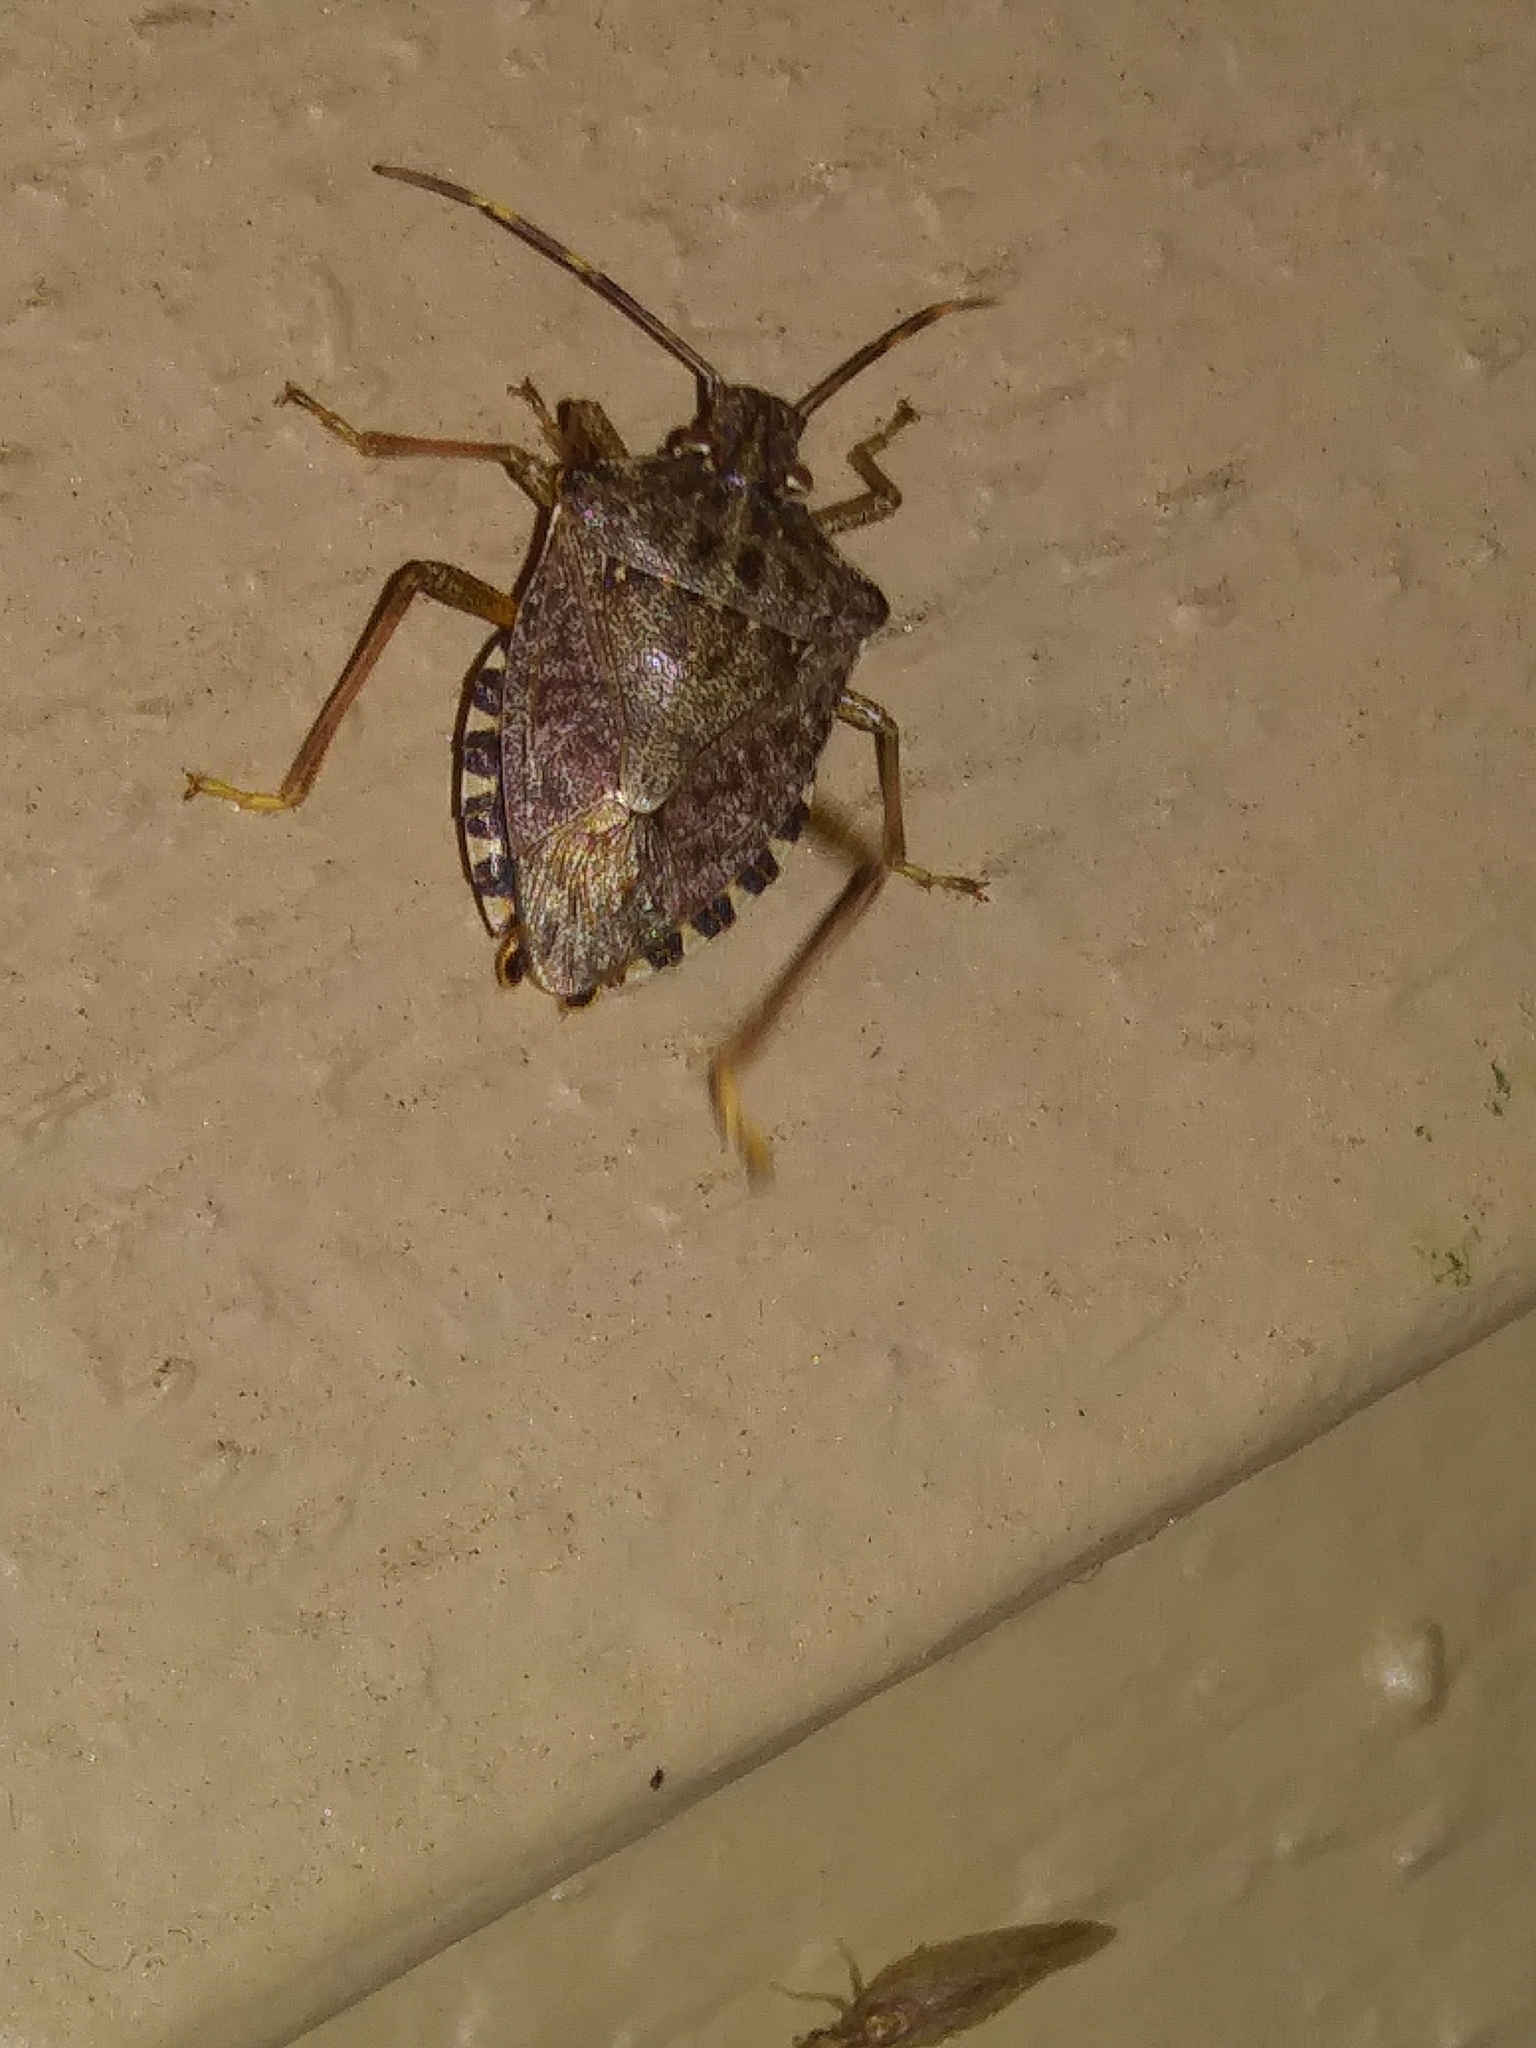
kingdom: Animalia
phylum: Arthropoda
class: Insecta
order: Hemiptera
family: Pentatomidae
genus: Halyomorpha
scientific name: Halyomorpha halys
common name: Brown marmorated stink bug
